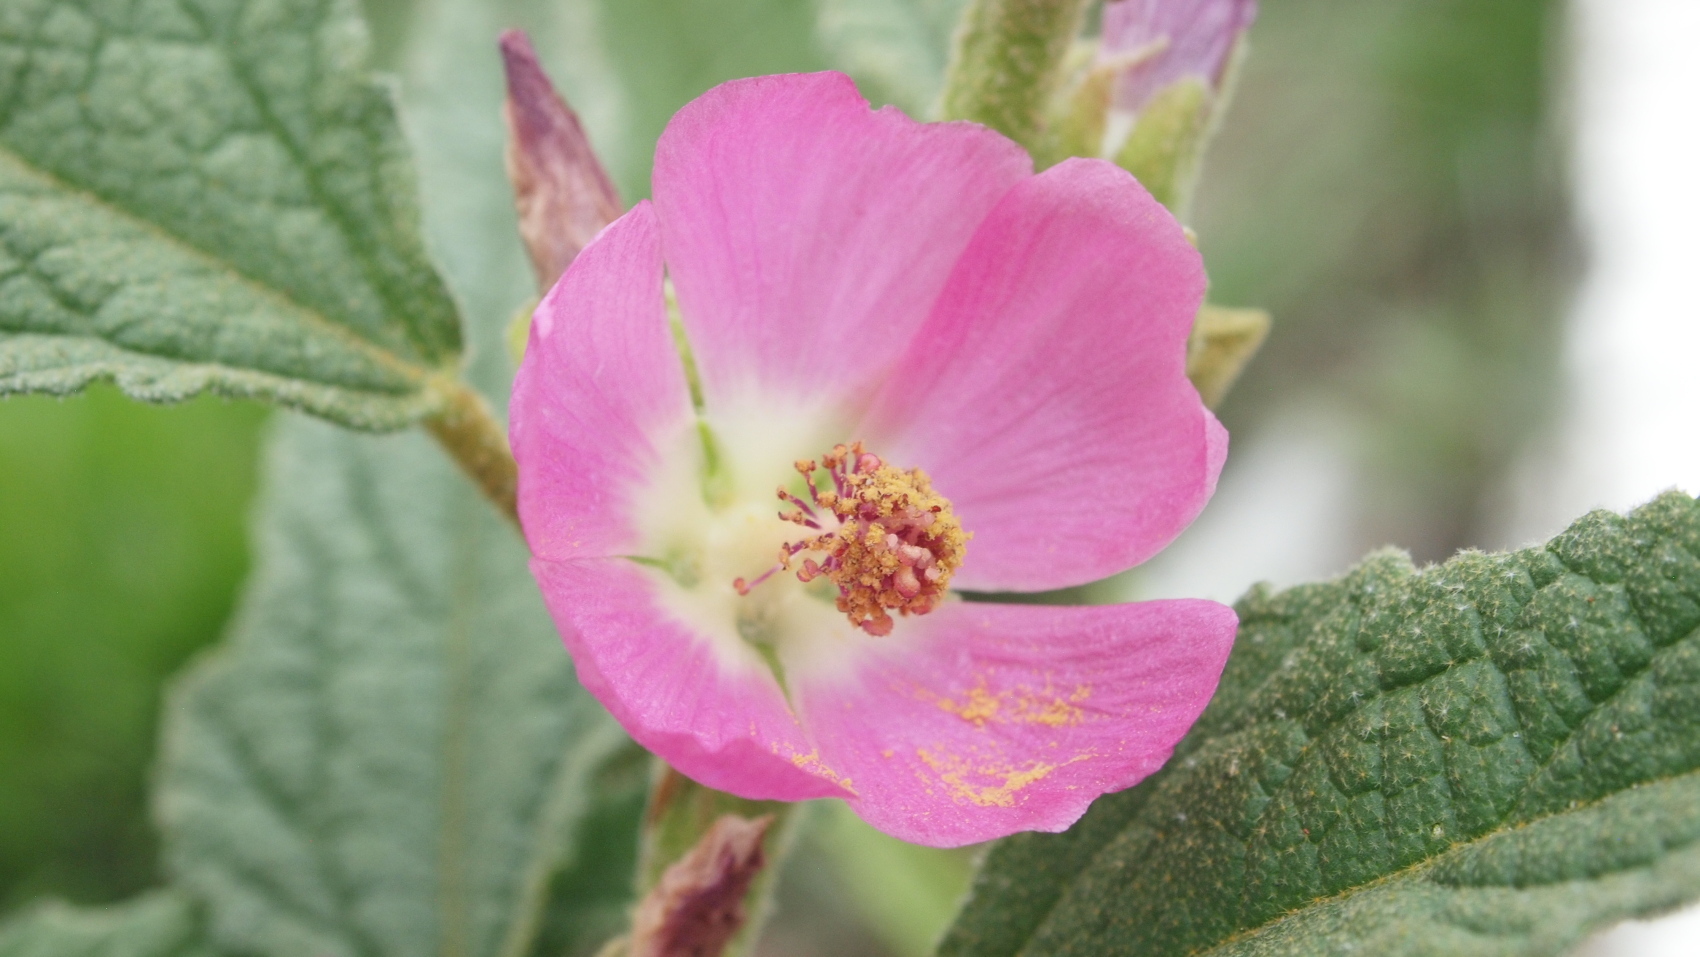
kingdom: Plantae
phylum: Tracheophyta
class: Magnoliopsida
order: Malvales
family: Malvaceae
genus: Sphaeralcea
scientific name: Sphaeralcea angustifolia
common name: Copper globe-mallow
